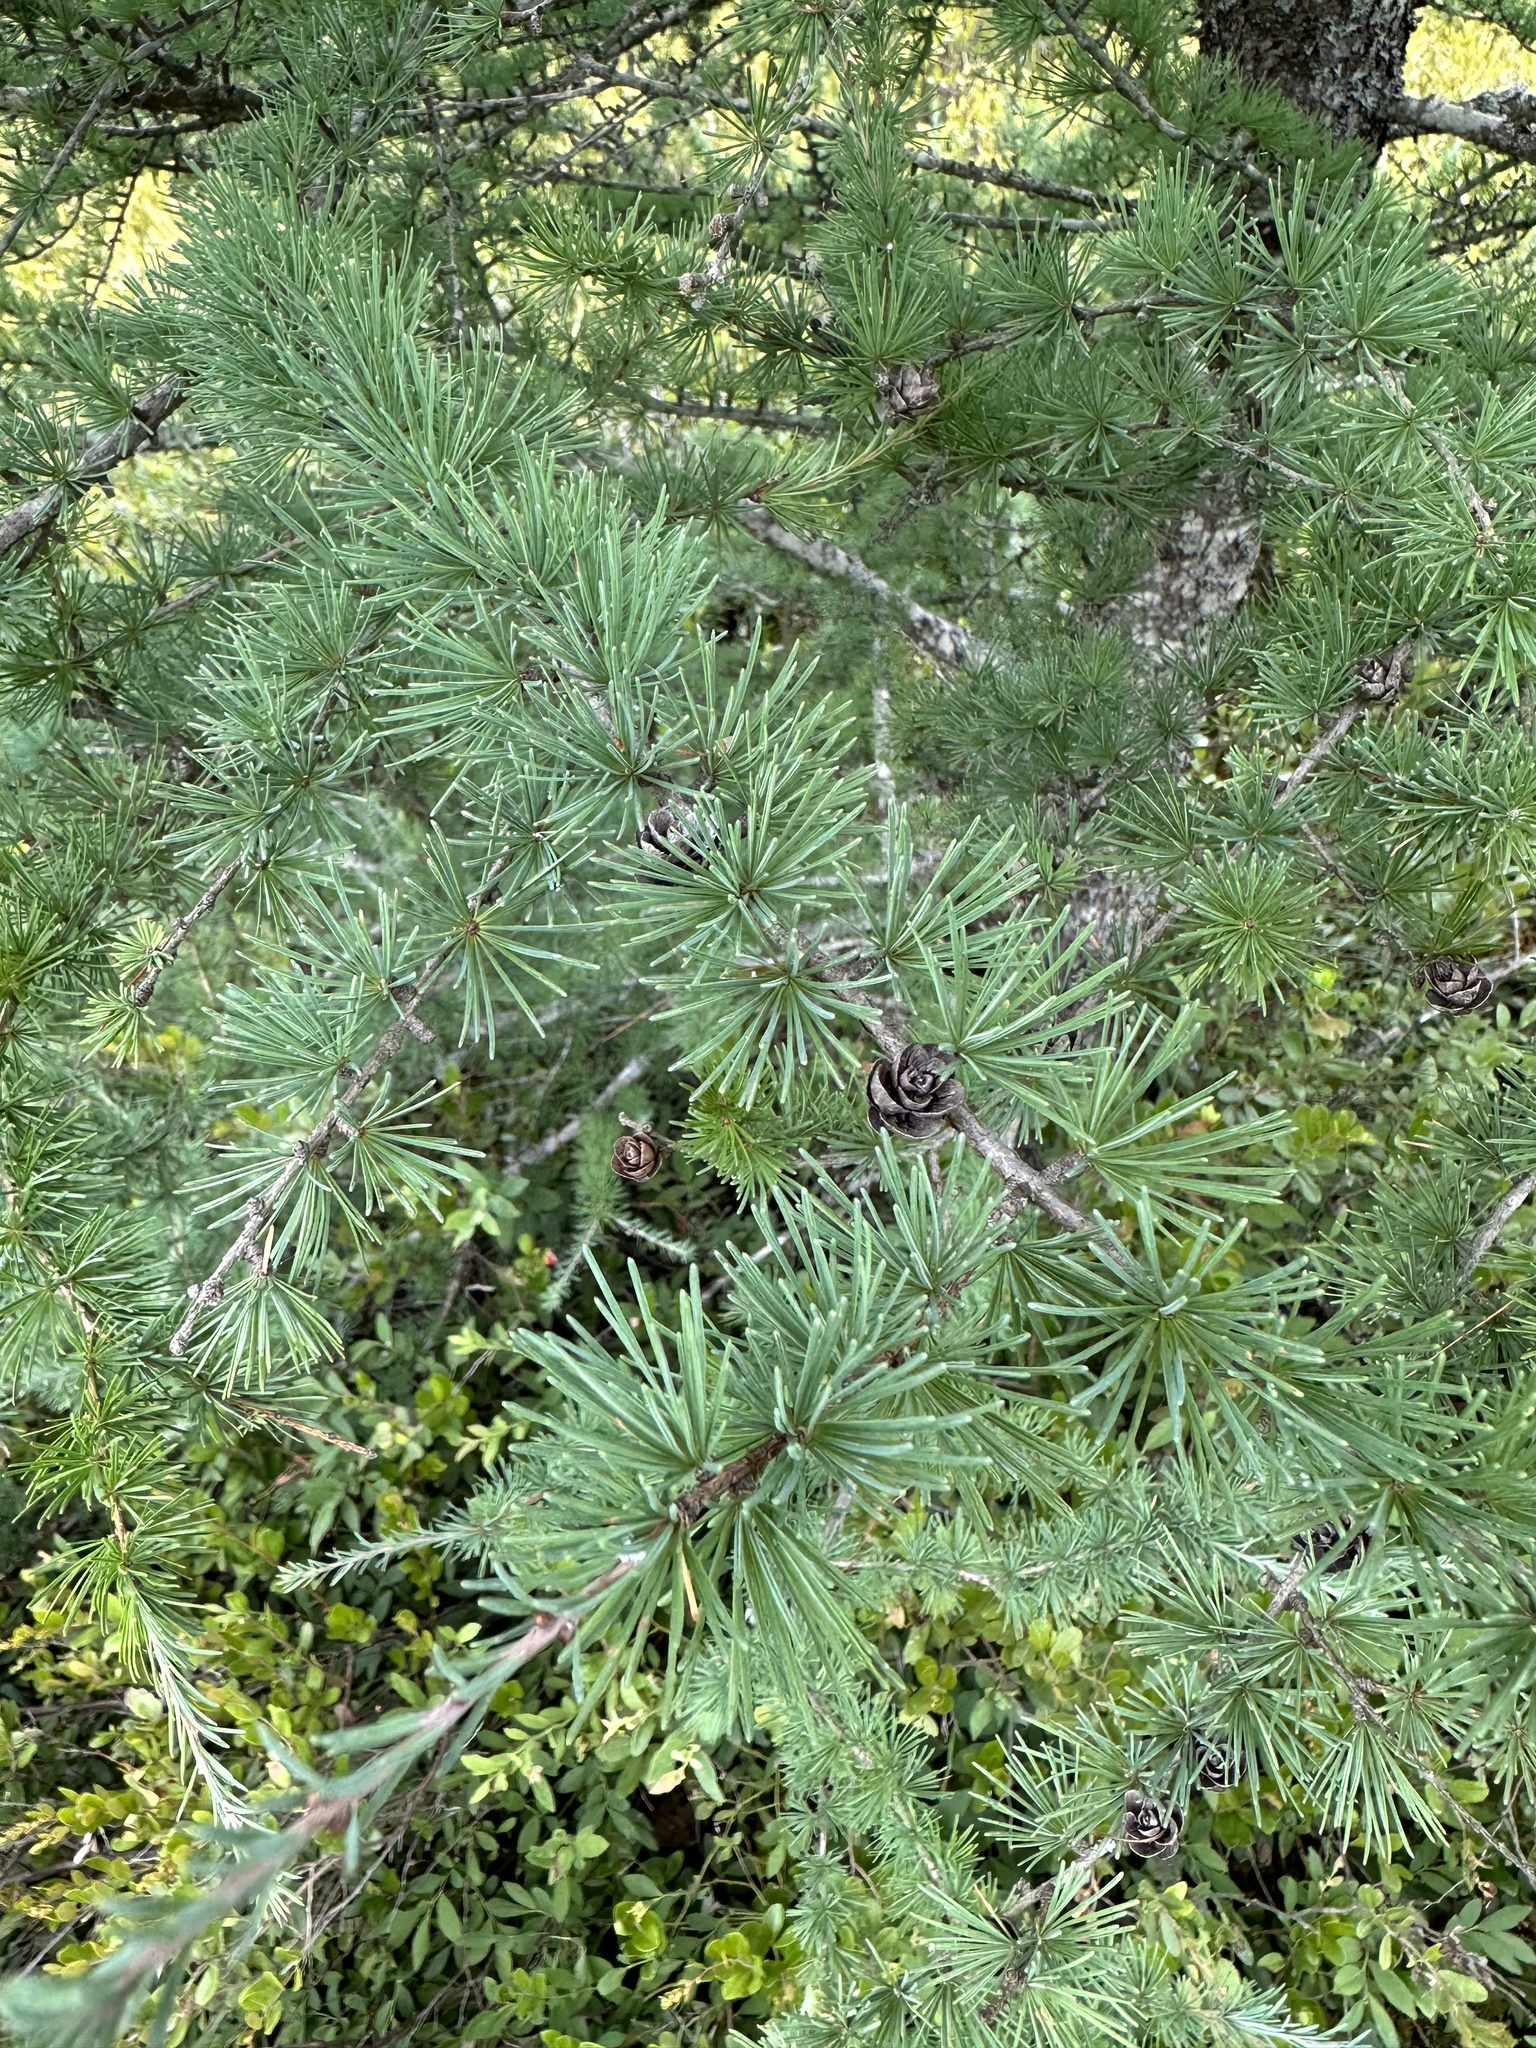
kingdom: Plantae
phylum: Tracheophyta
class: Pinopsida
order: Pinales
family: Pinaceae
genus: Larix
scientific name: Larix laricina
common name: American larch
